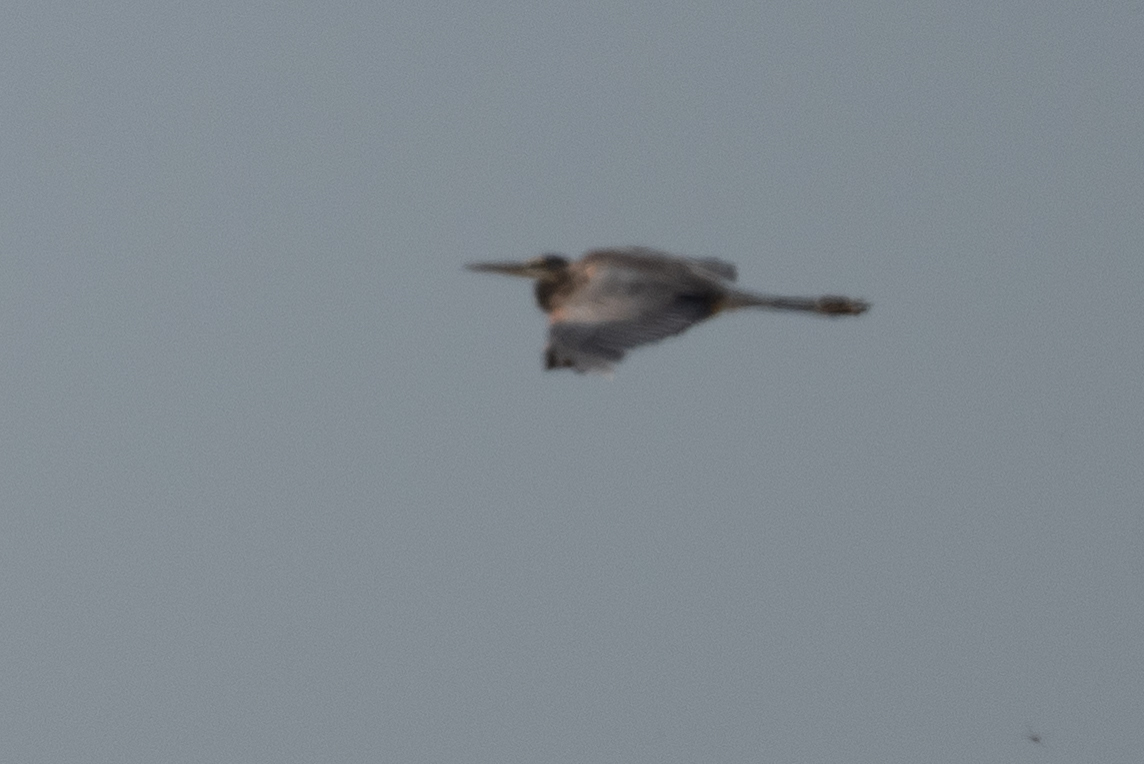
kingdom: Animalia
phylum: Chordata
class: Aves
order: Pelecaniformes
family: Ardeidae
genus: Ardea
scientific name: Ardea herodias
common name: Great blue heron
